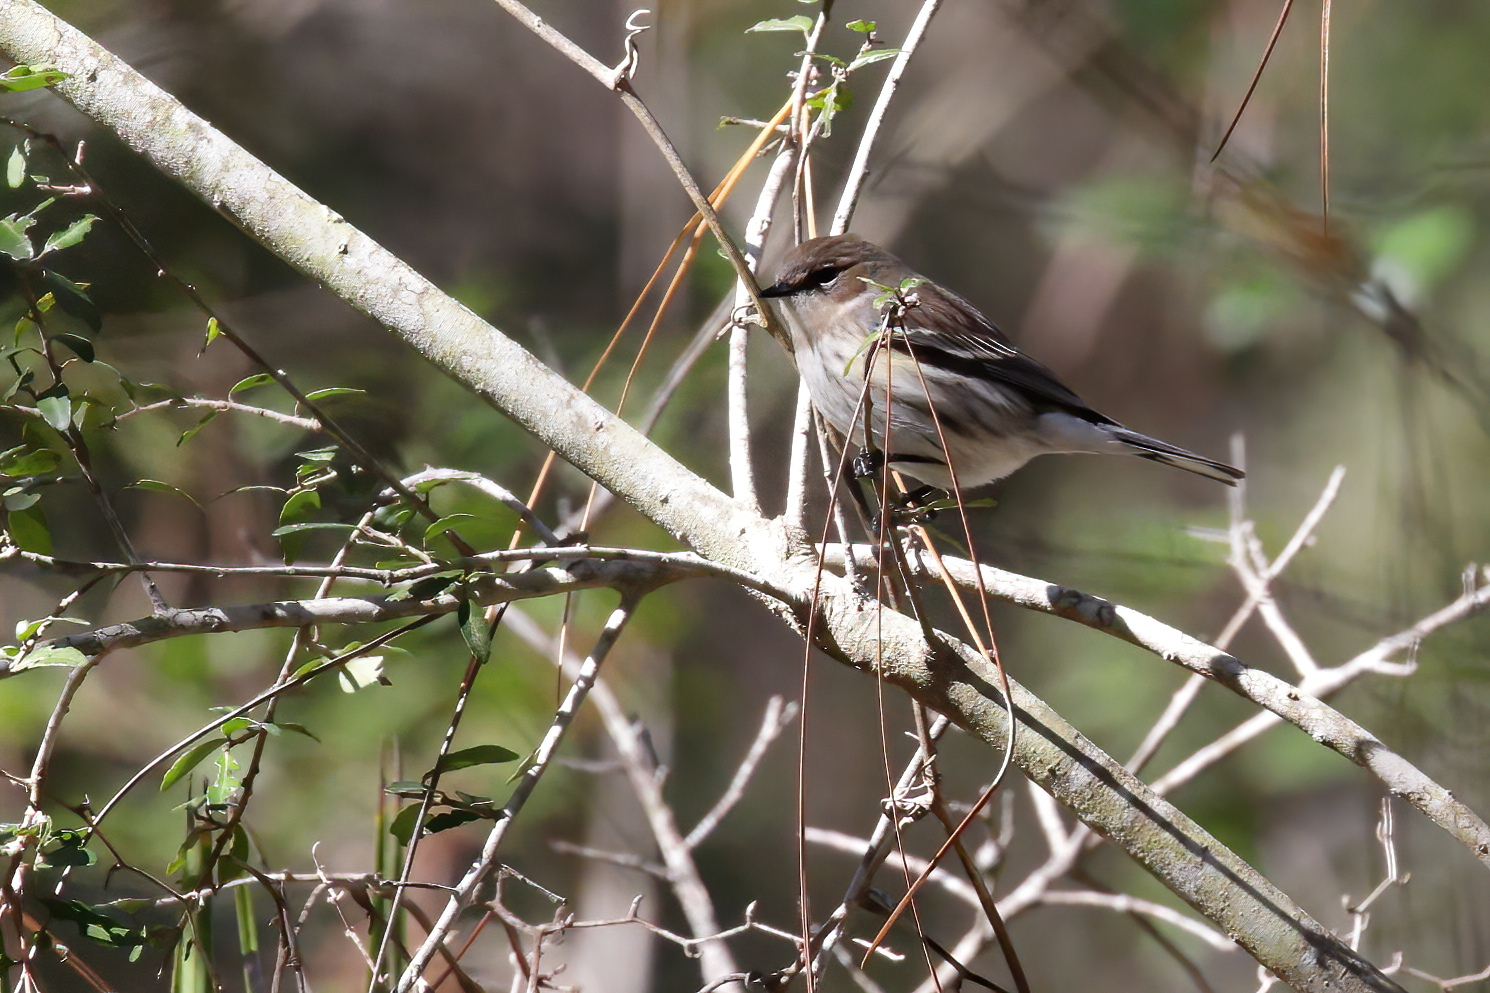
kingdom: Animalia
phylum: Chordata
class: Aves
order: Passeriformes
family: Parulidae
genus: Setophaga
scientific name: Setophaga coronata
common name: Myrtle warbler
